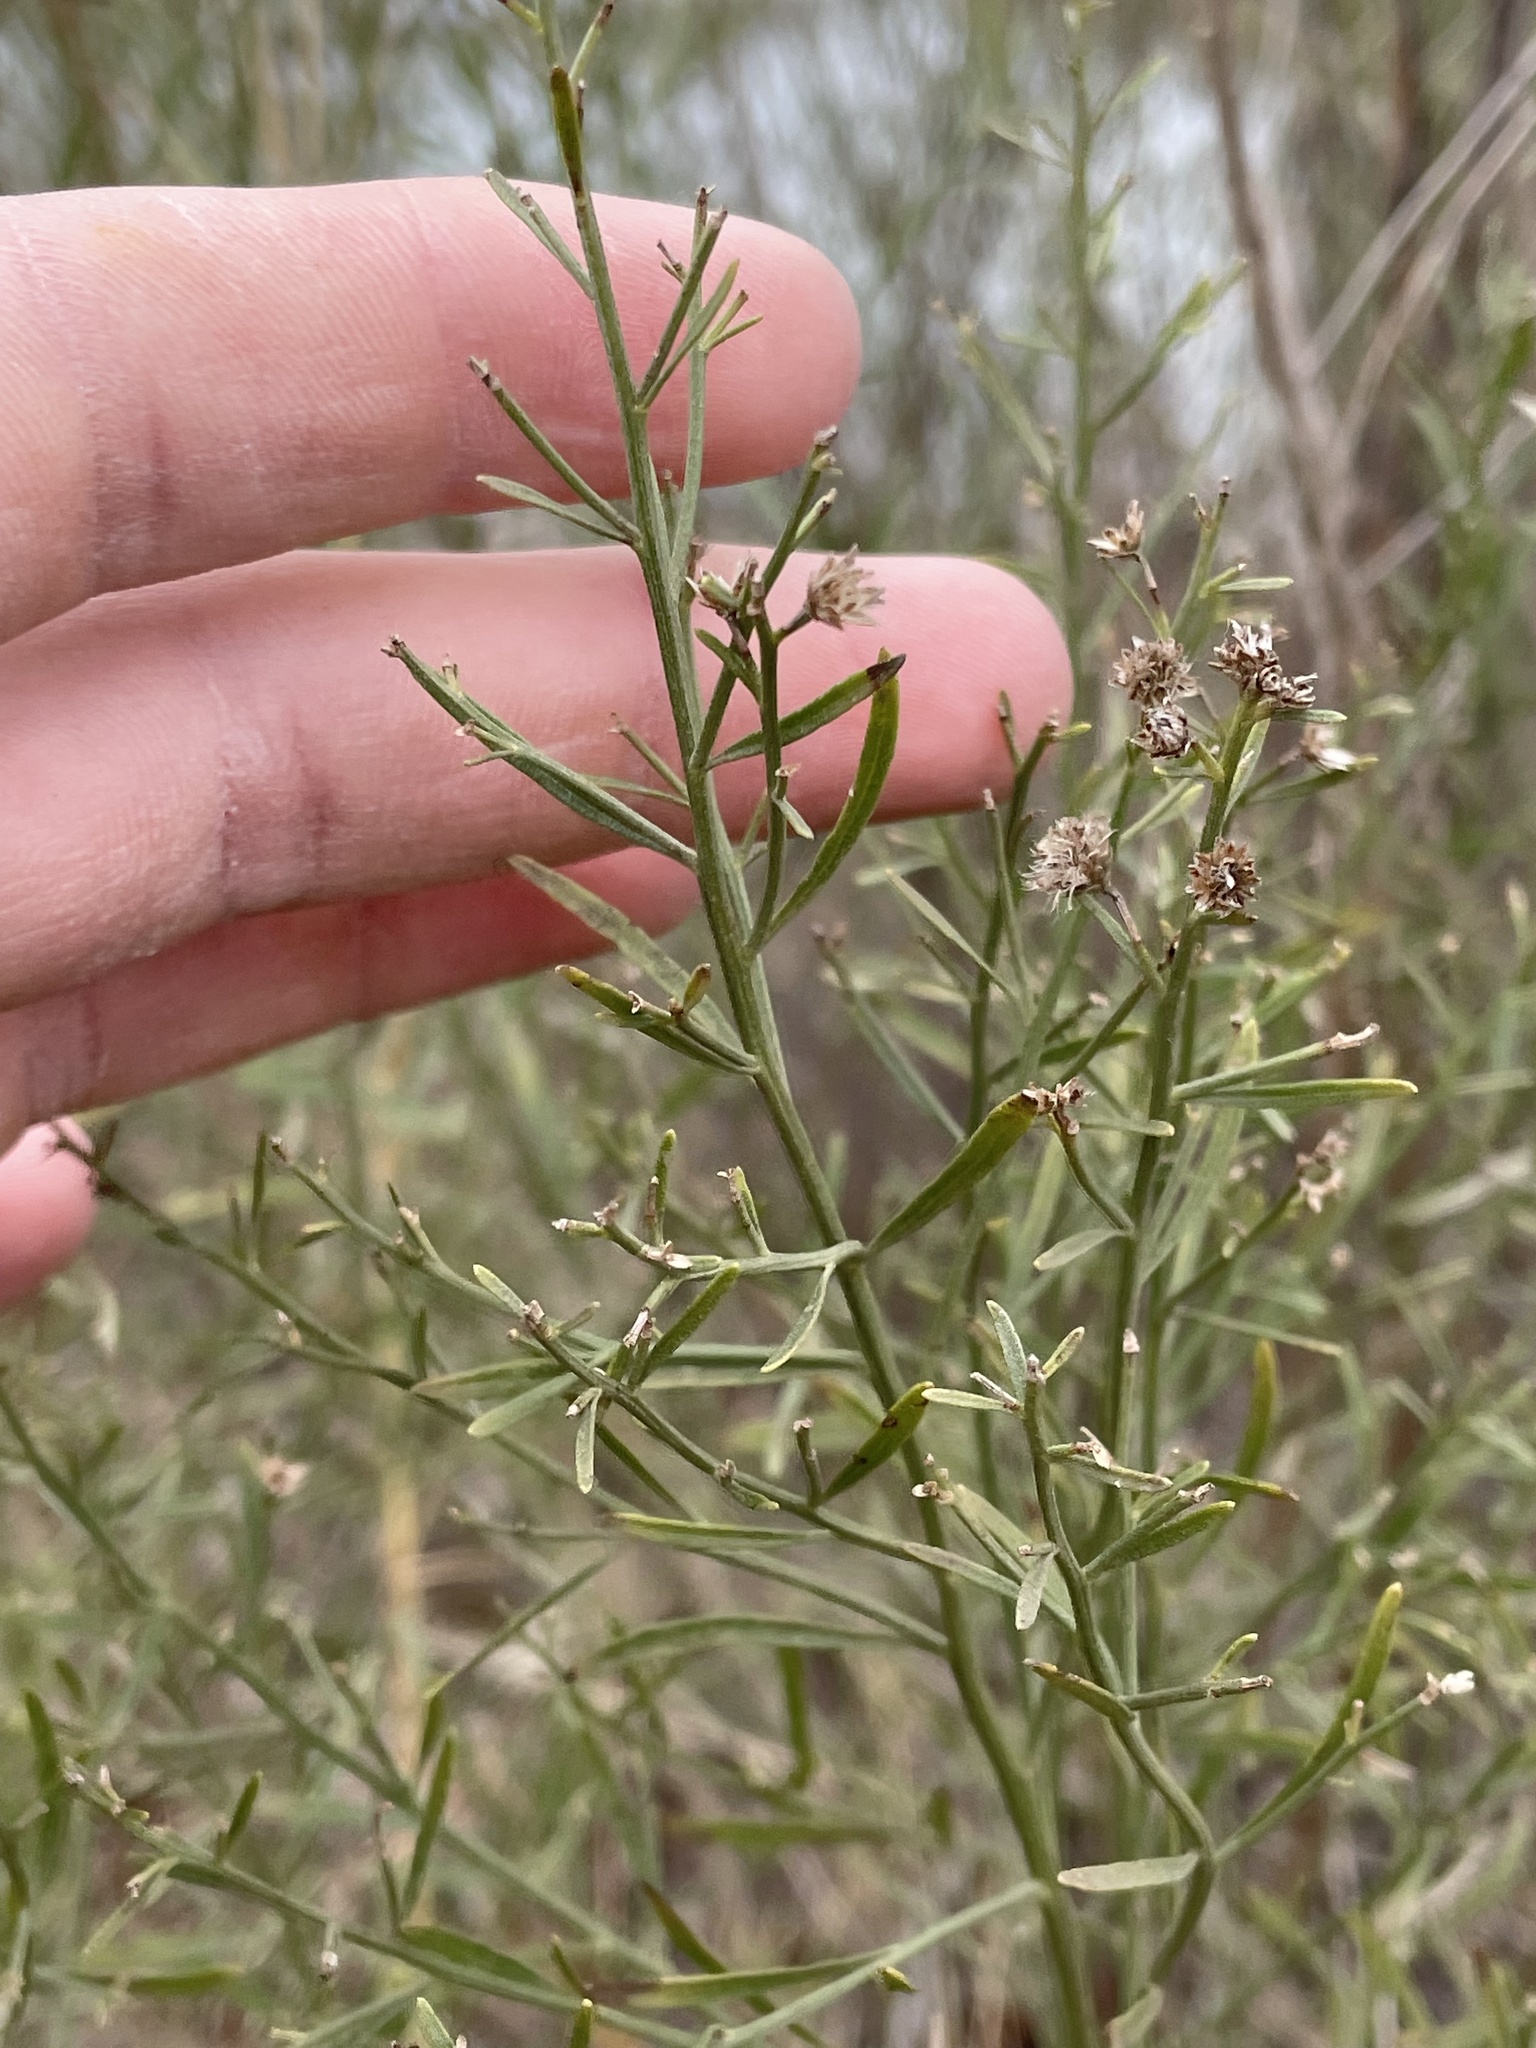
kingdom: Plantae
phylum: Tracheophyta
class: Magnoliopsida
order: Asterales
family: Asteraceae
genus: Baccharis
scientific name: Baccharis neglecta
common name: Roosevelt-weed
